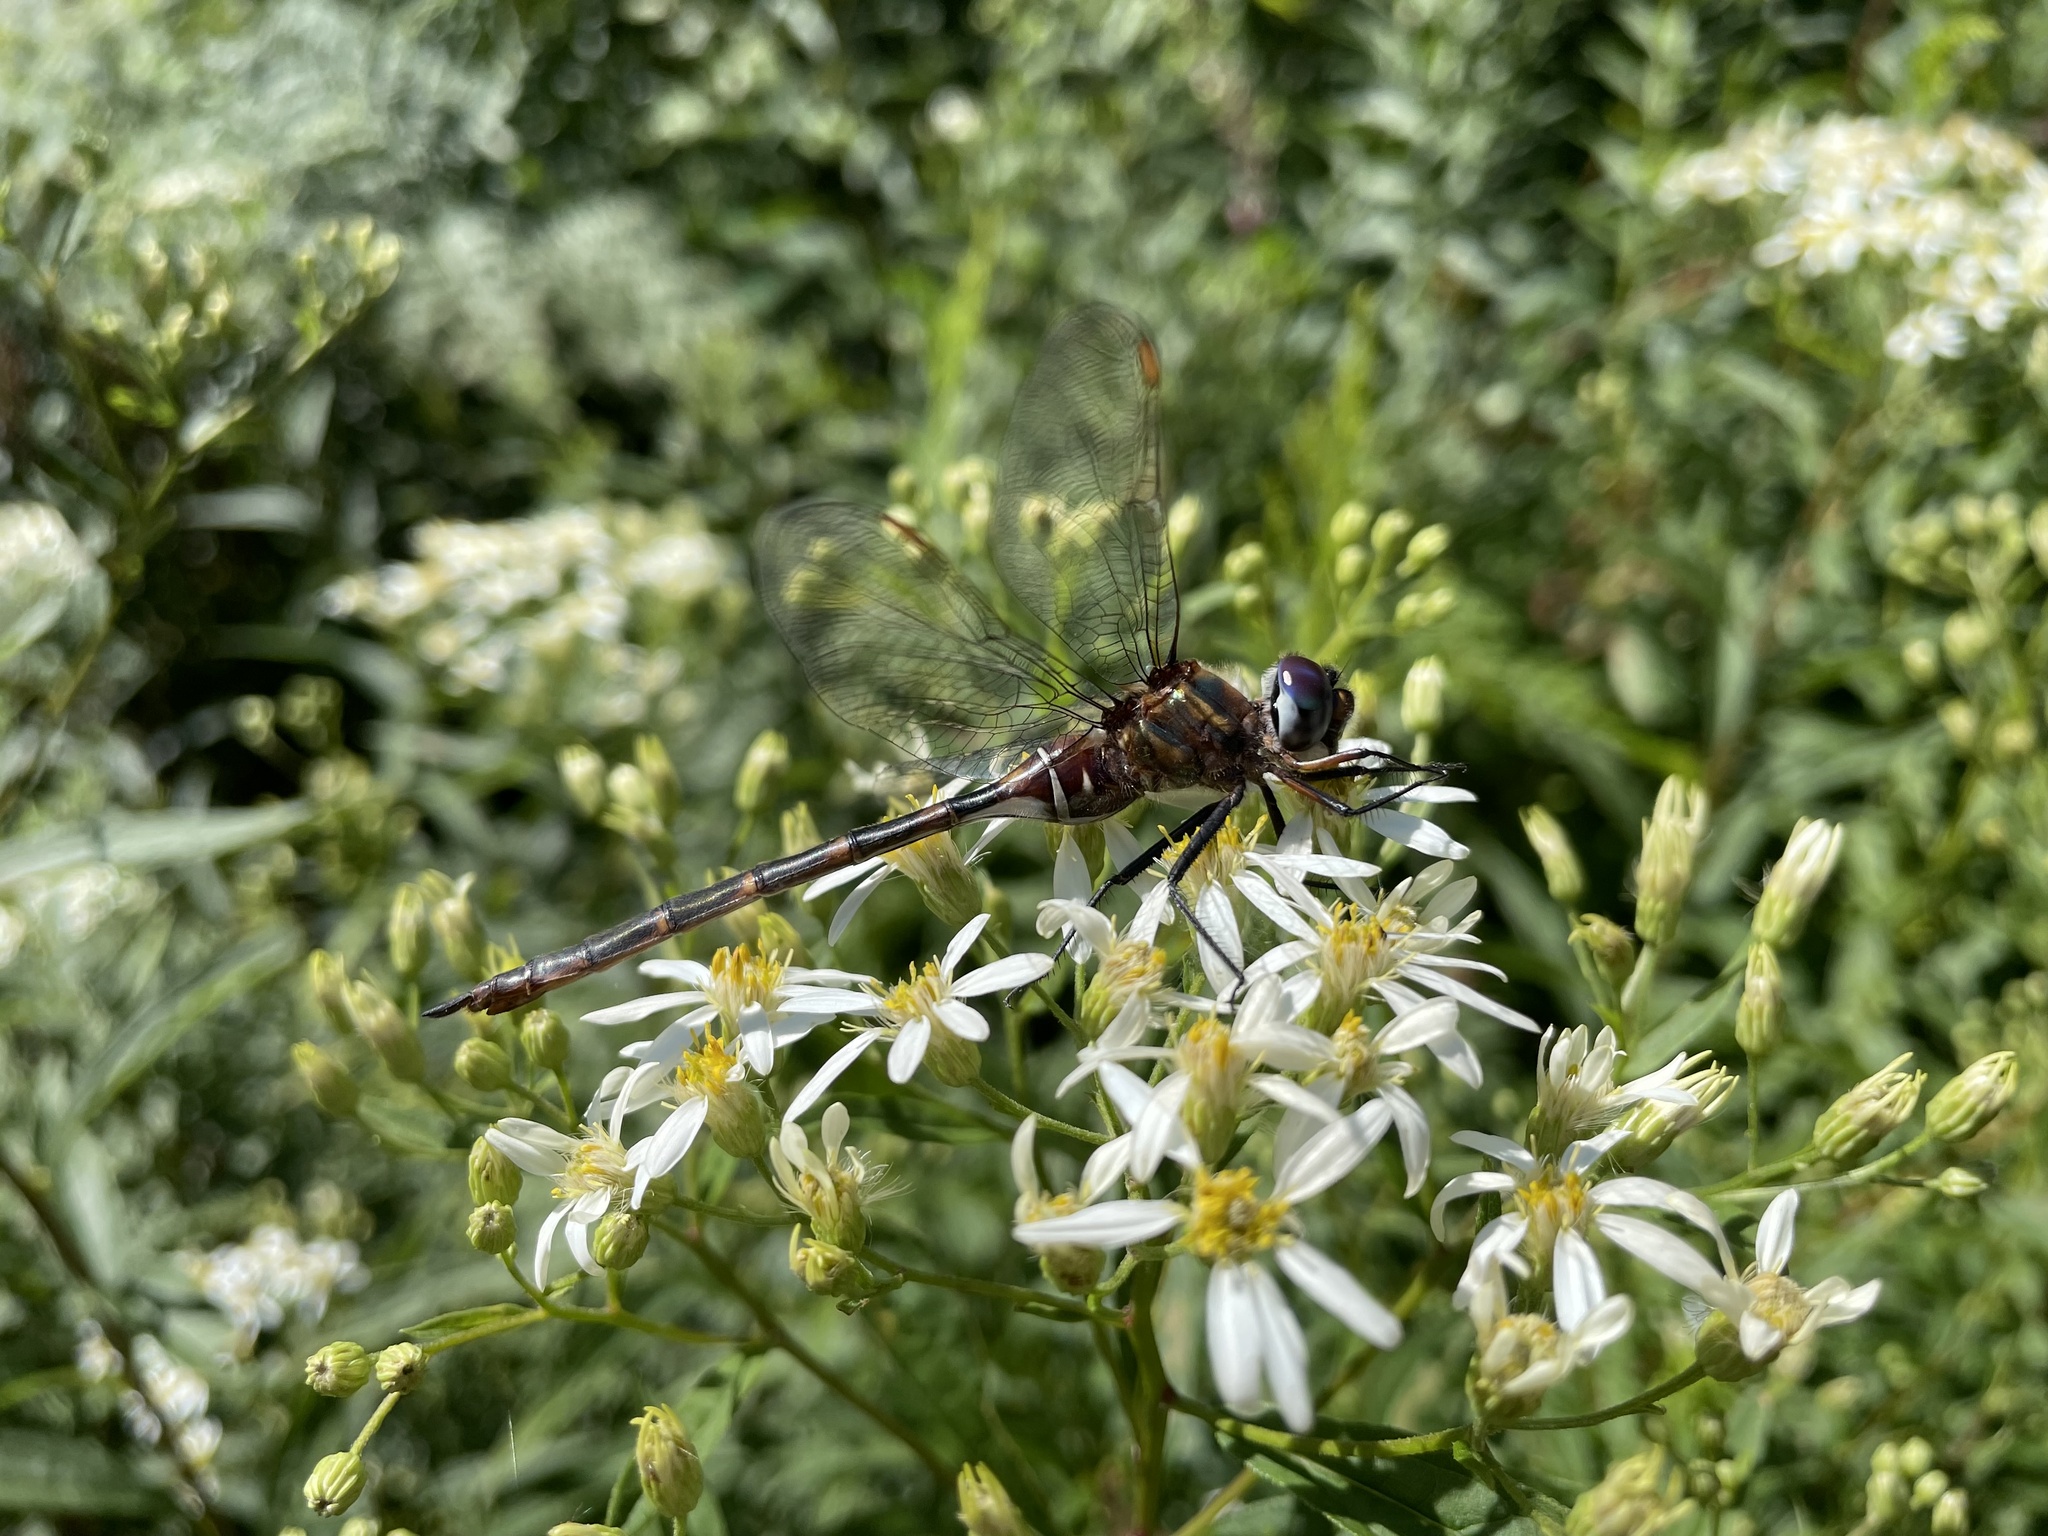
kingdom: Animalia
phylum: Arthropoda
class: Insecta
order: Odonata
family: Corduliidae
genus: Somatochlora
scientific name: Somatochlora incurvata
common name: Incurvate emerald
